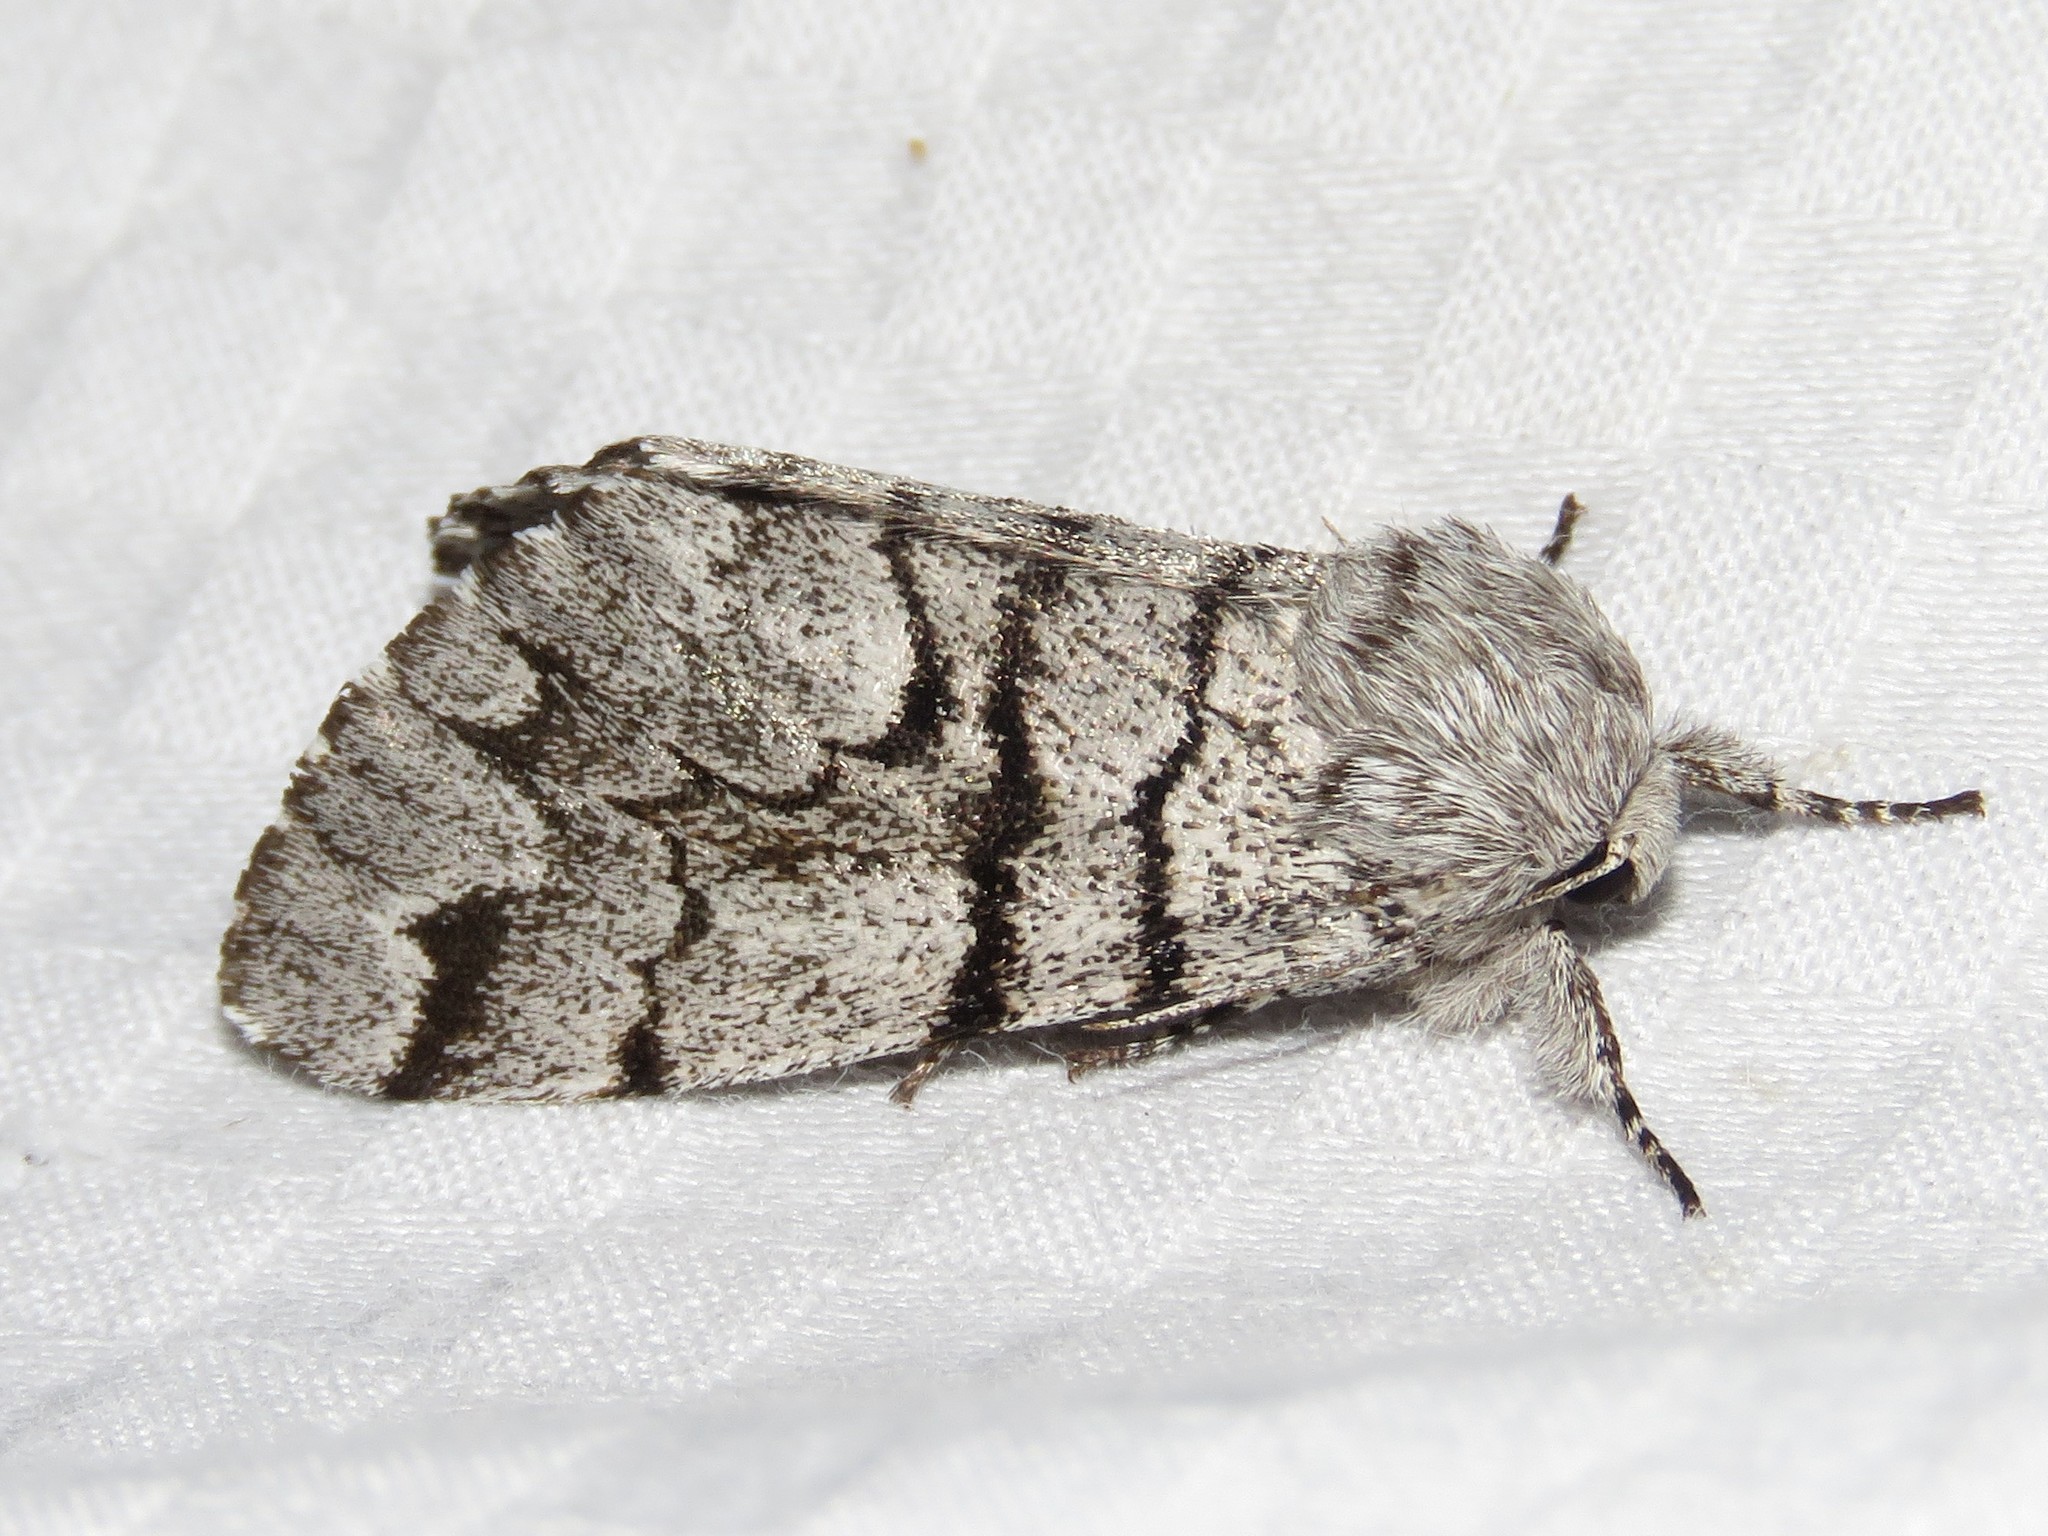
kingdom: Animalia
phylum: Arthropoda
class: Insecta
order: Lepidoptera
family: Noctuidae
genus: Panthea
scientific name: Panthea furcilla
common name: Eastern panthea moth
